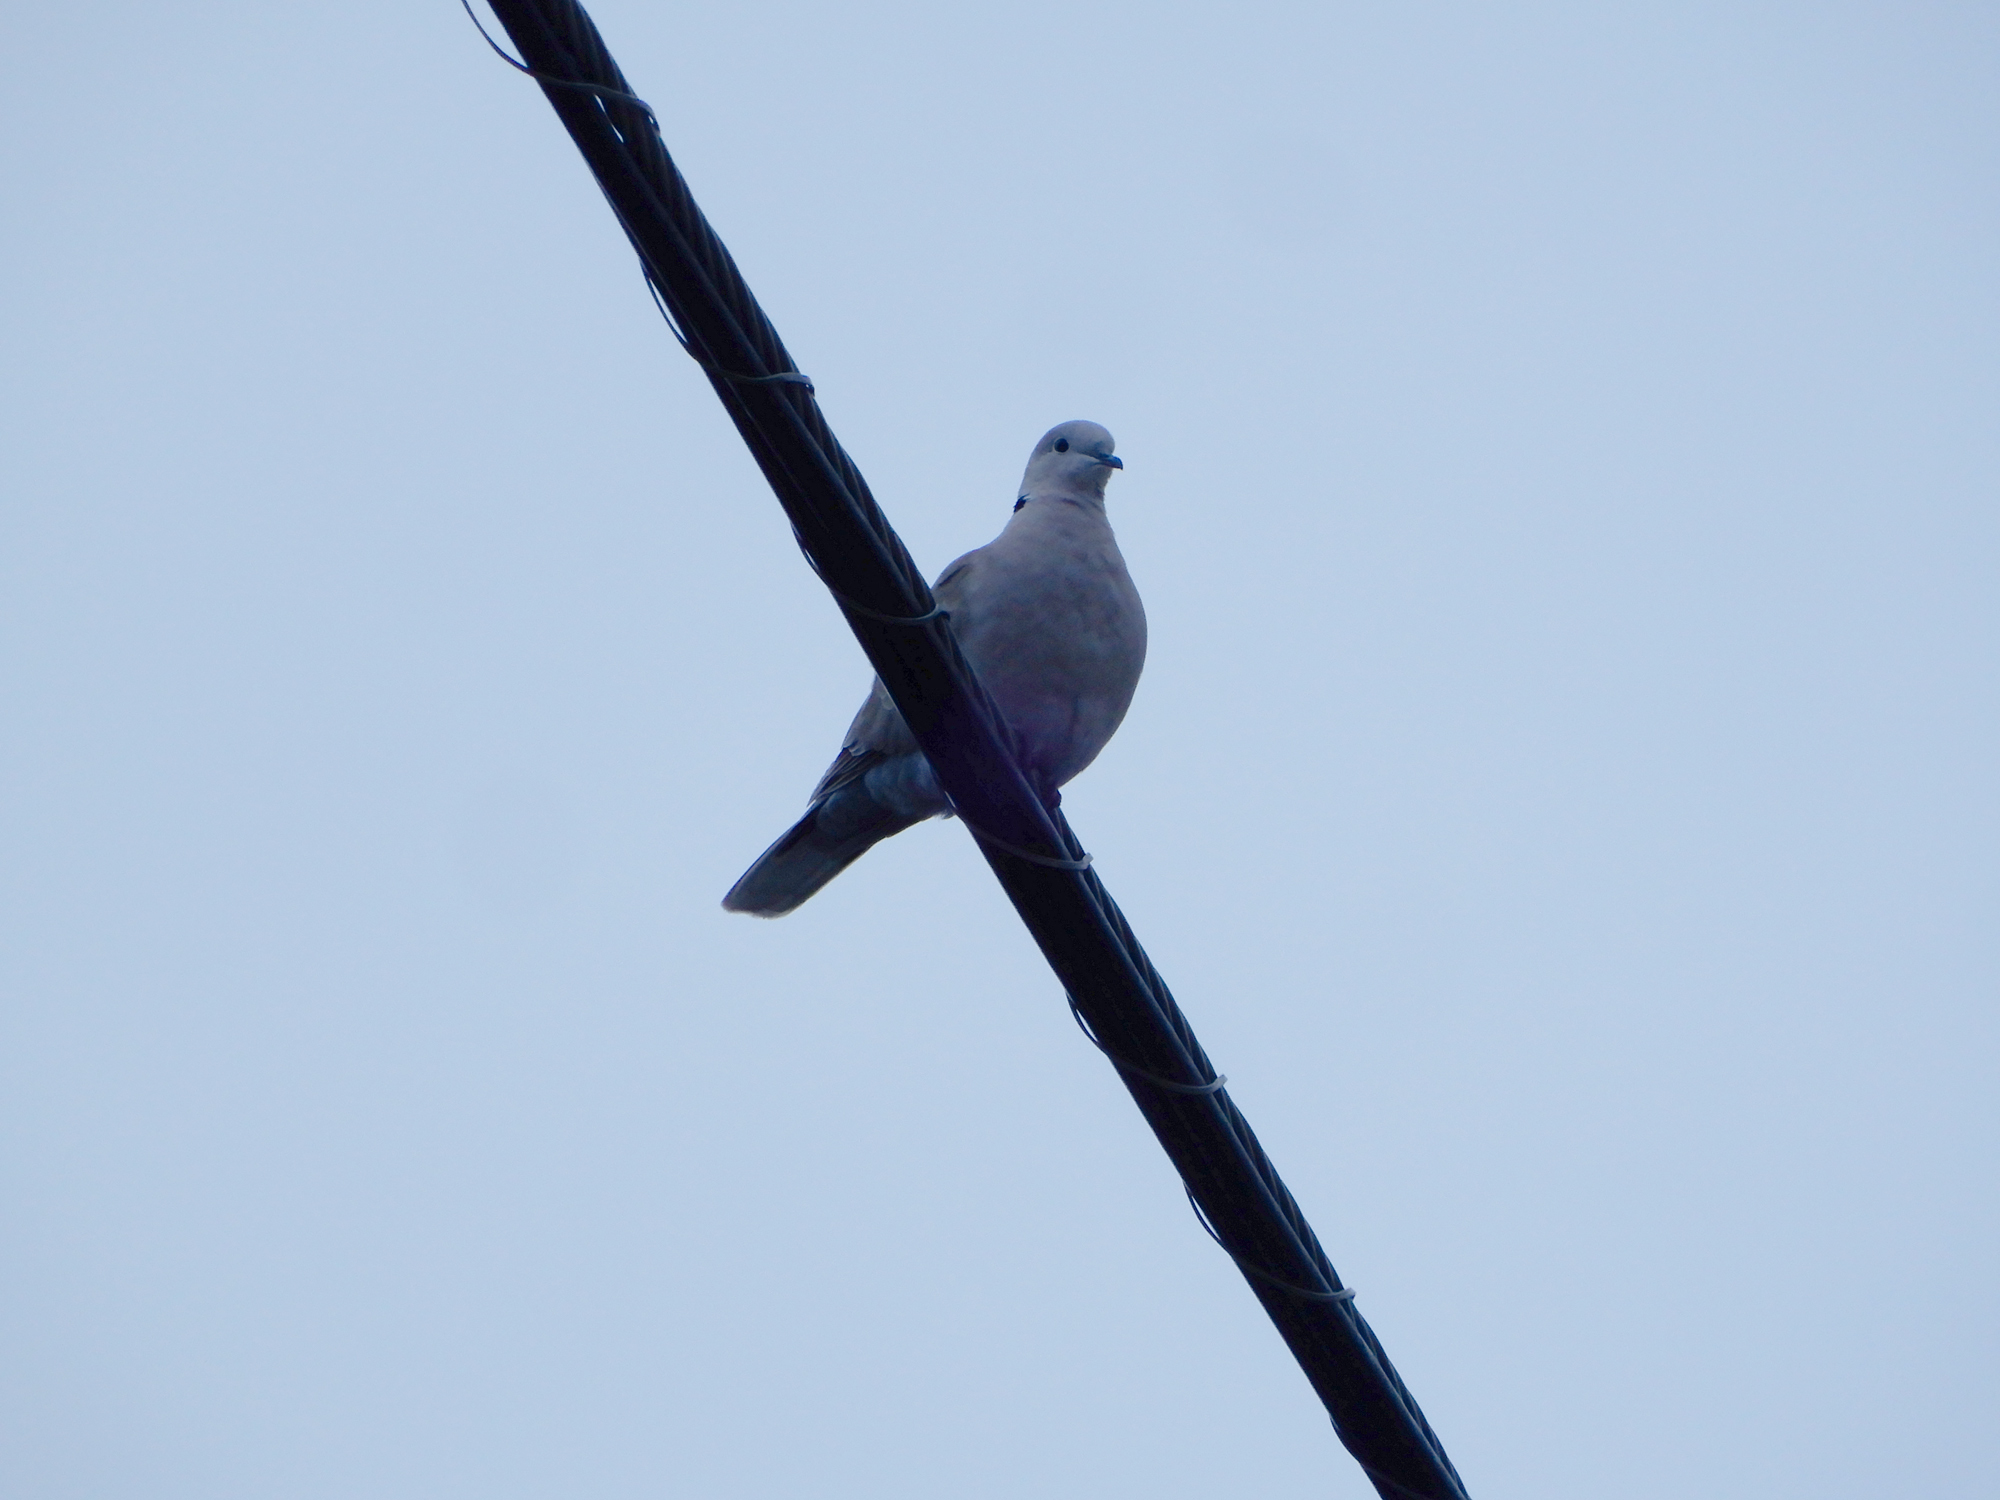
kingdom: Animalia
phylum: Chordata
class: Aves
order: Columbiformes
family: Columbidae
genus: Streptopelia
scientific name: Streptopelia decaocto
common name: Eurasian collared dove
